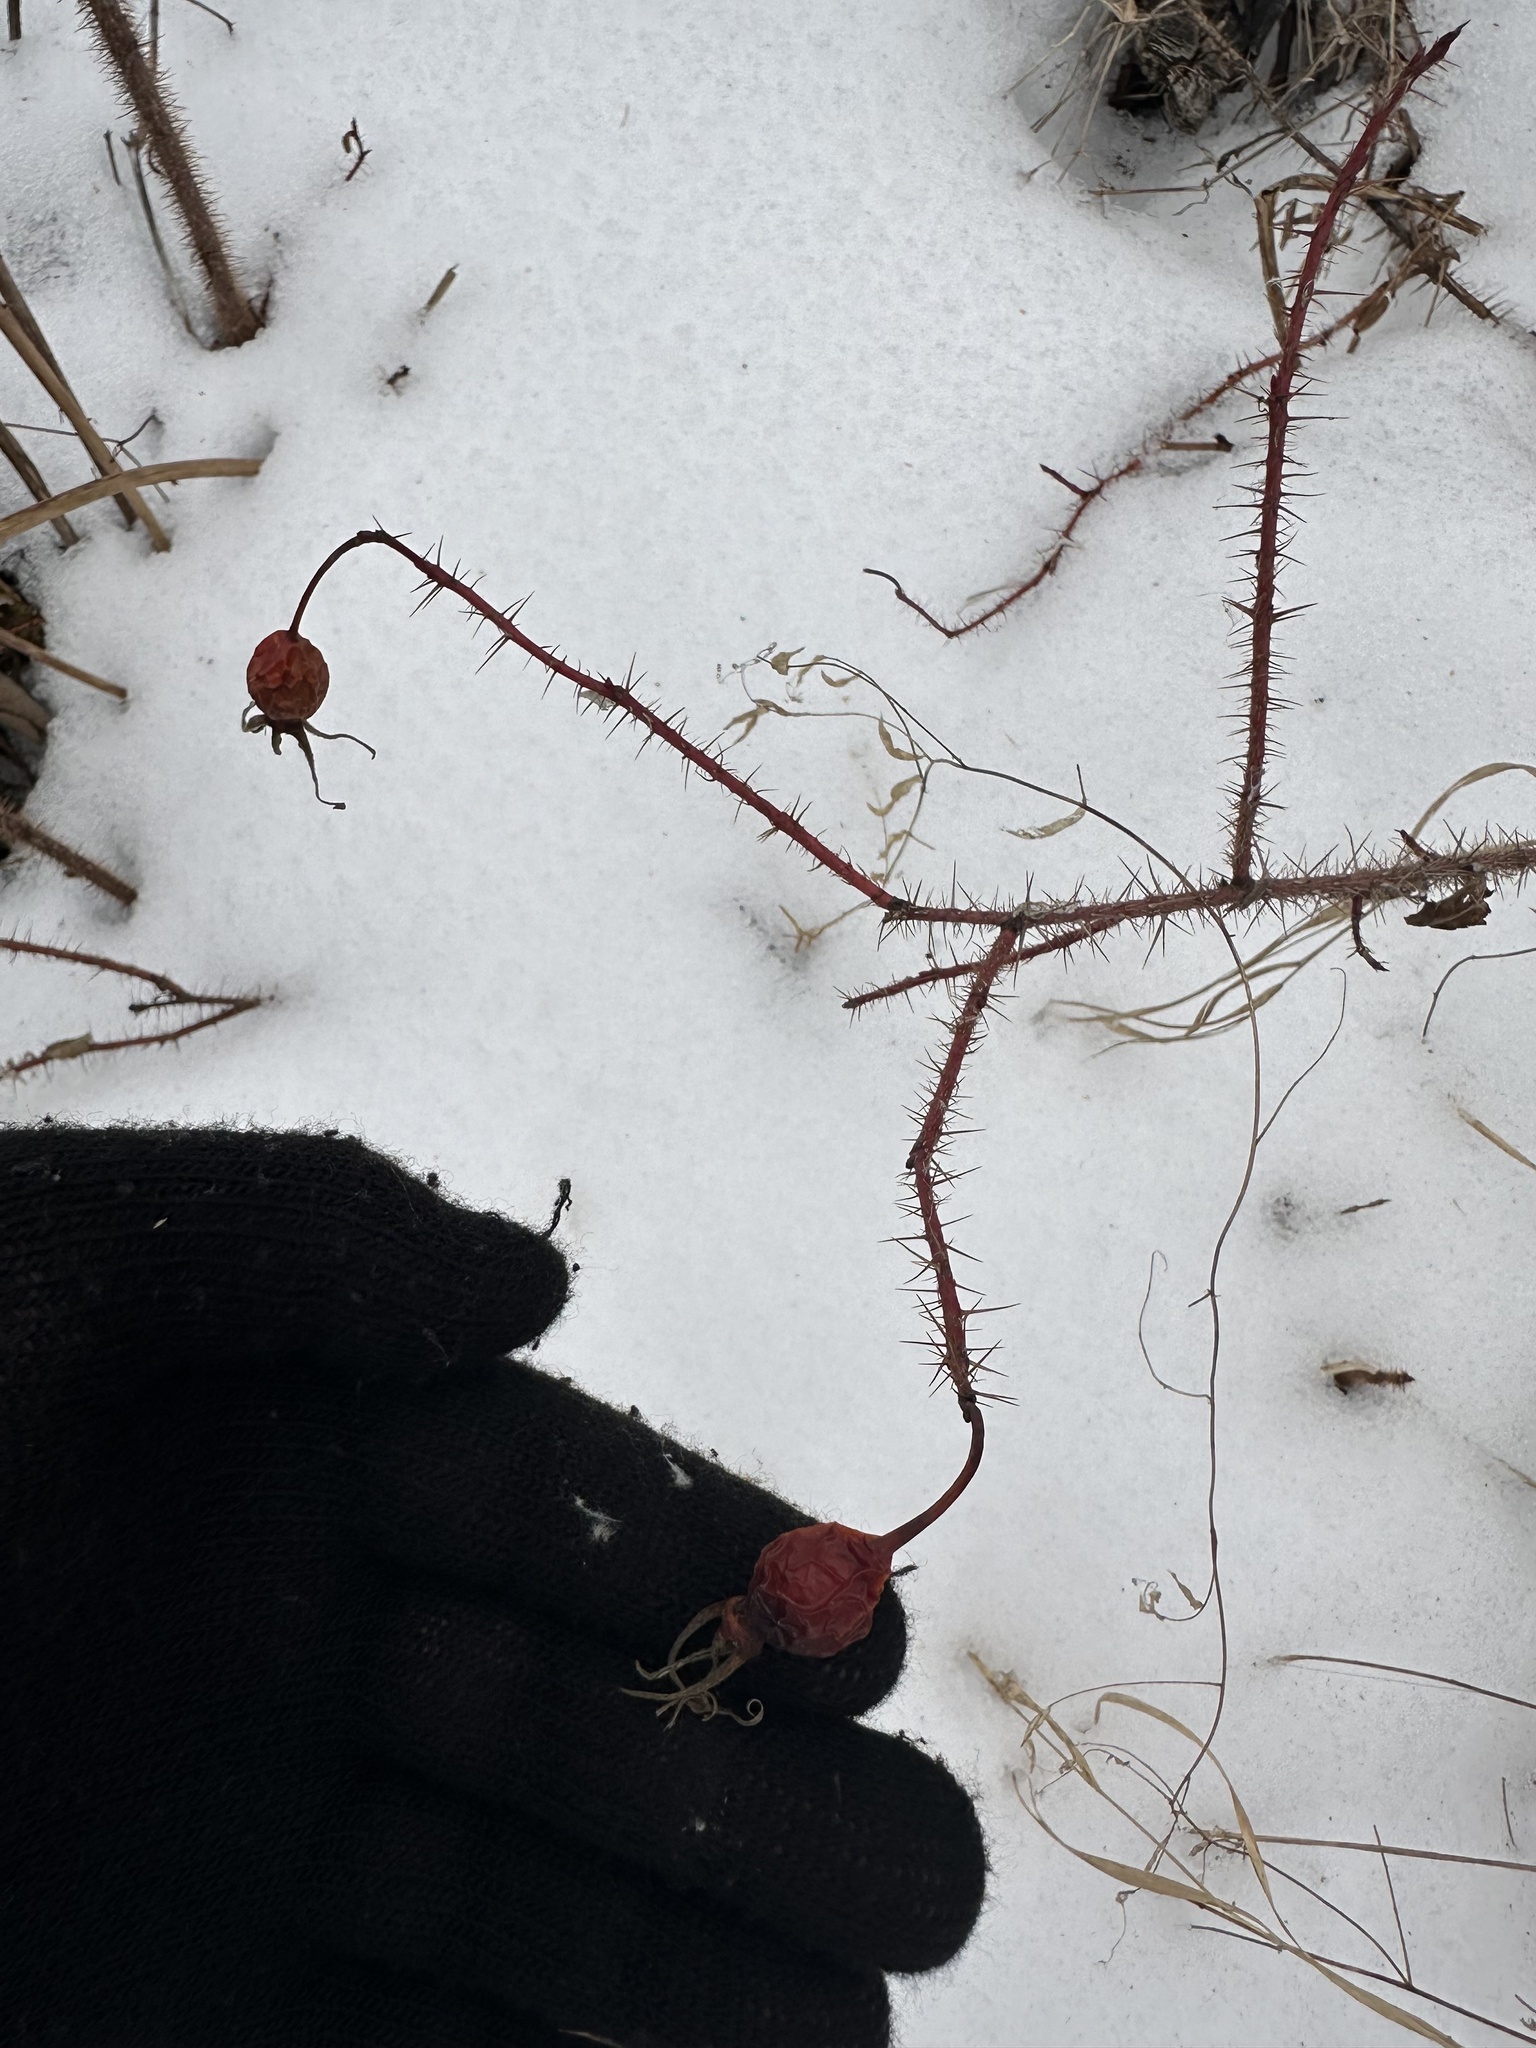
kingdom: Plantae
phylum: Tracheophyta
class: Magnoliopsida
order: Rosales
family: Rosaceae
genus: Rosa
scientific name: Rosa acicularis
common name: Prickly rose
